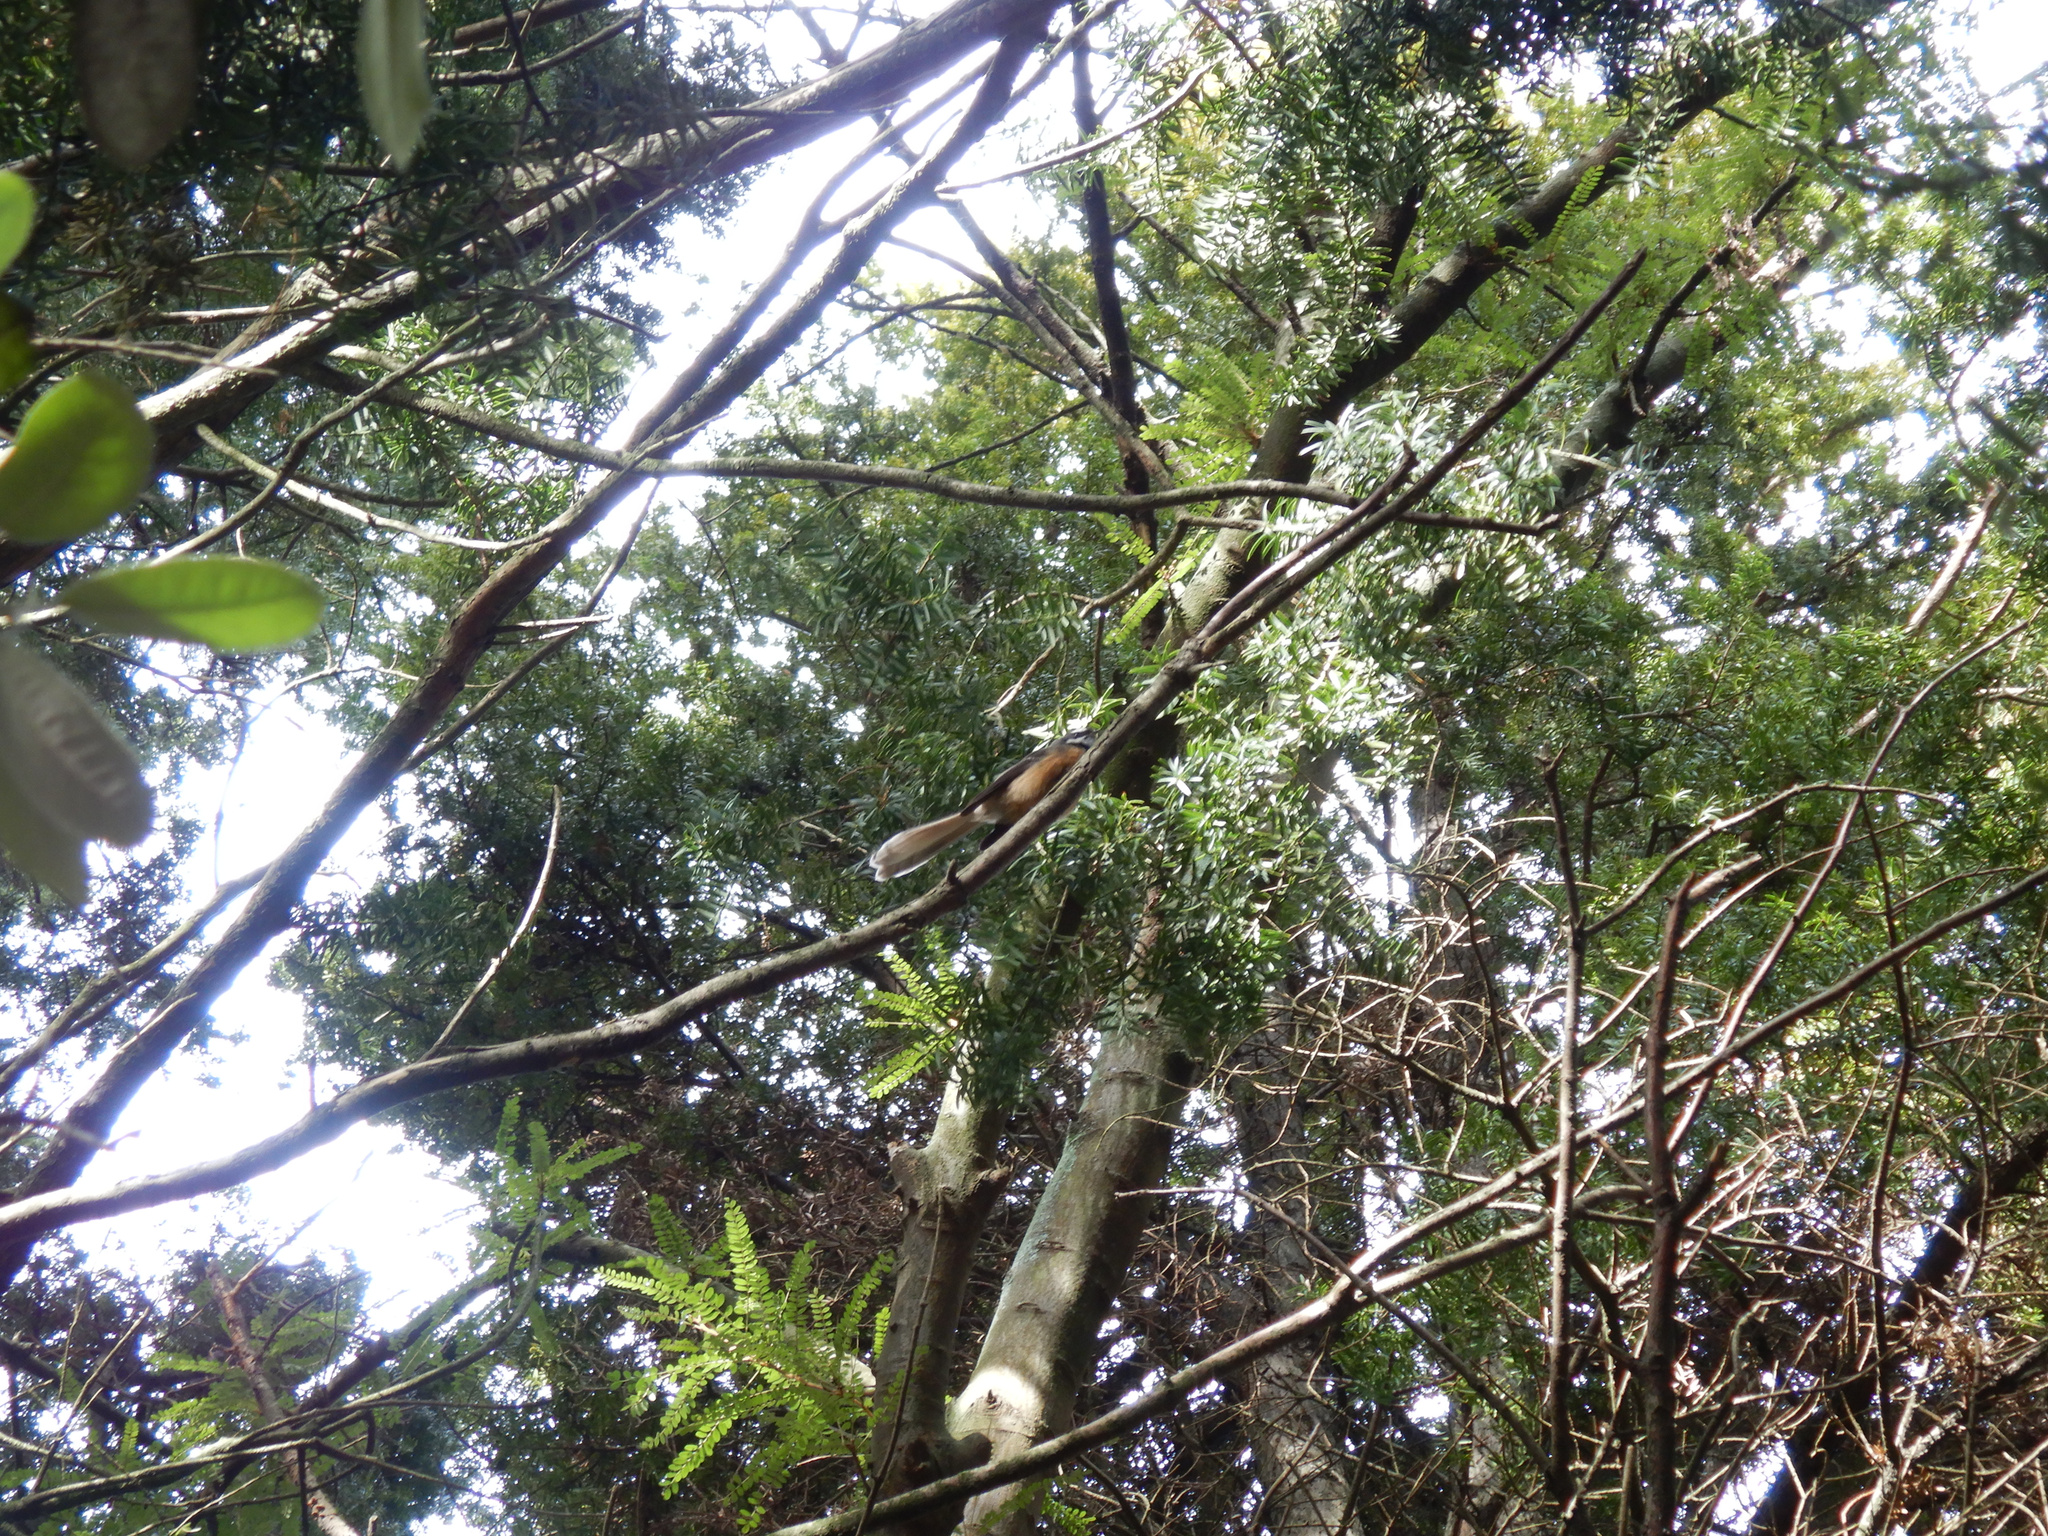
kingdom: Animalia
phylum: Chordata
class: Aves
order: Passeriformes
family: Rhipiduridae
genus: Rhipidura
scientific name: Rhipidura fuliginosa
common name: New zealand fantail
